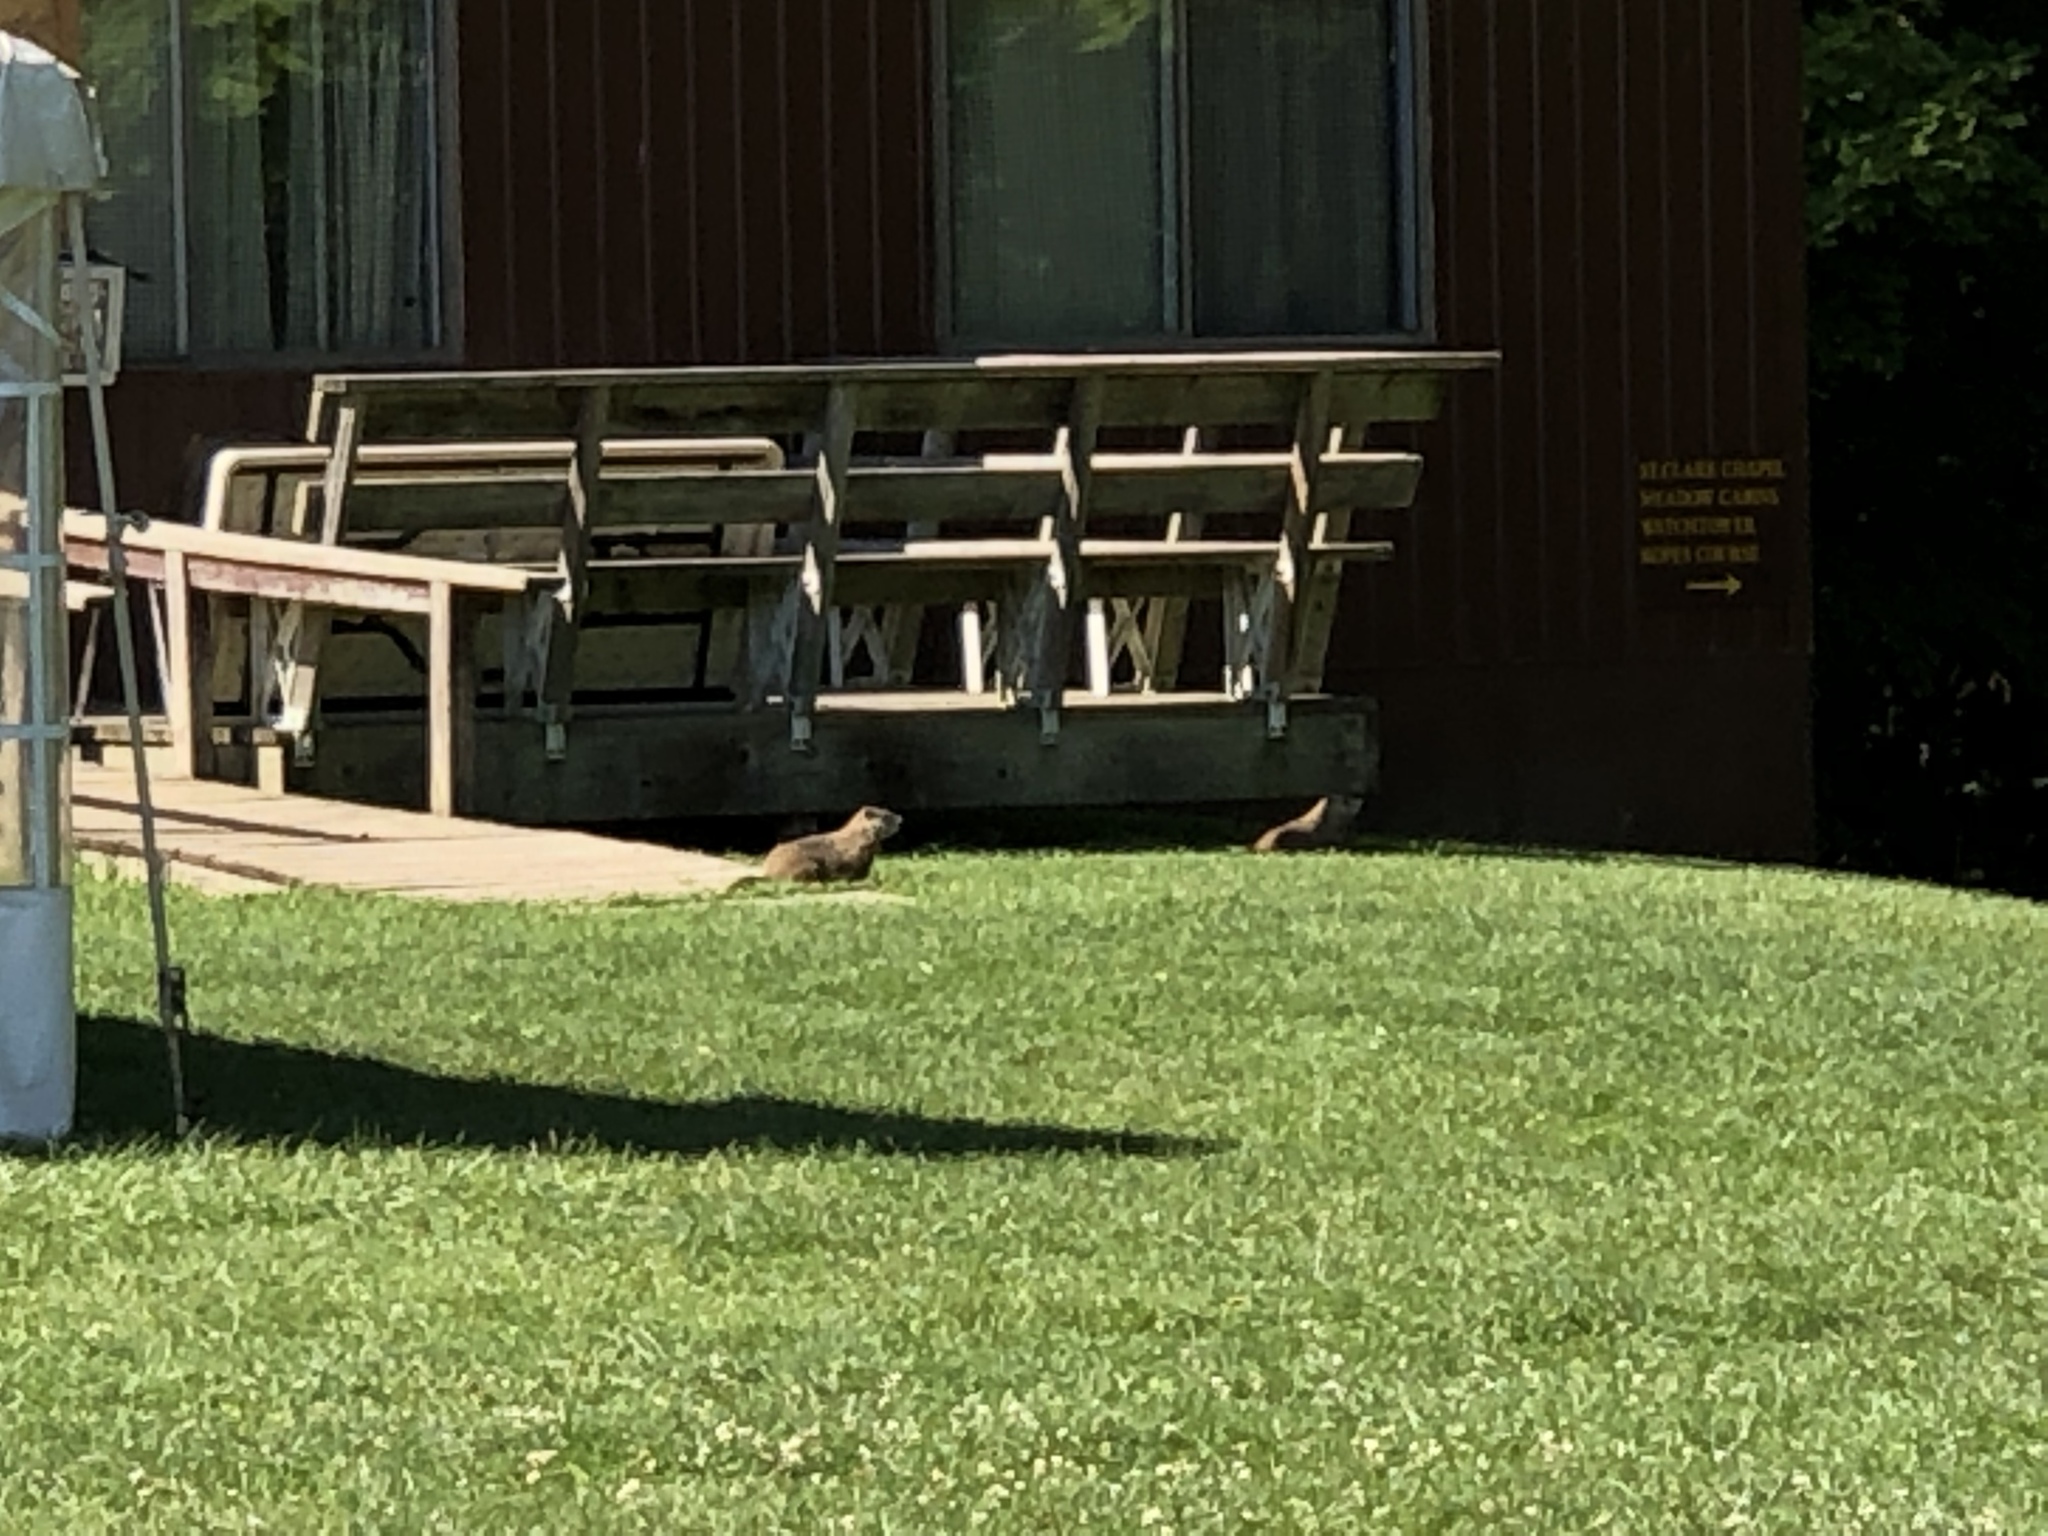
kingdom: Animalia
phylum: Chordata
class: Mammalia
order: Rodentia
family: Sciuridae
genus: Marmota
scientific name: Marmota monax
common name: Groundhog
